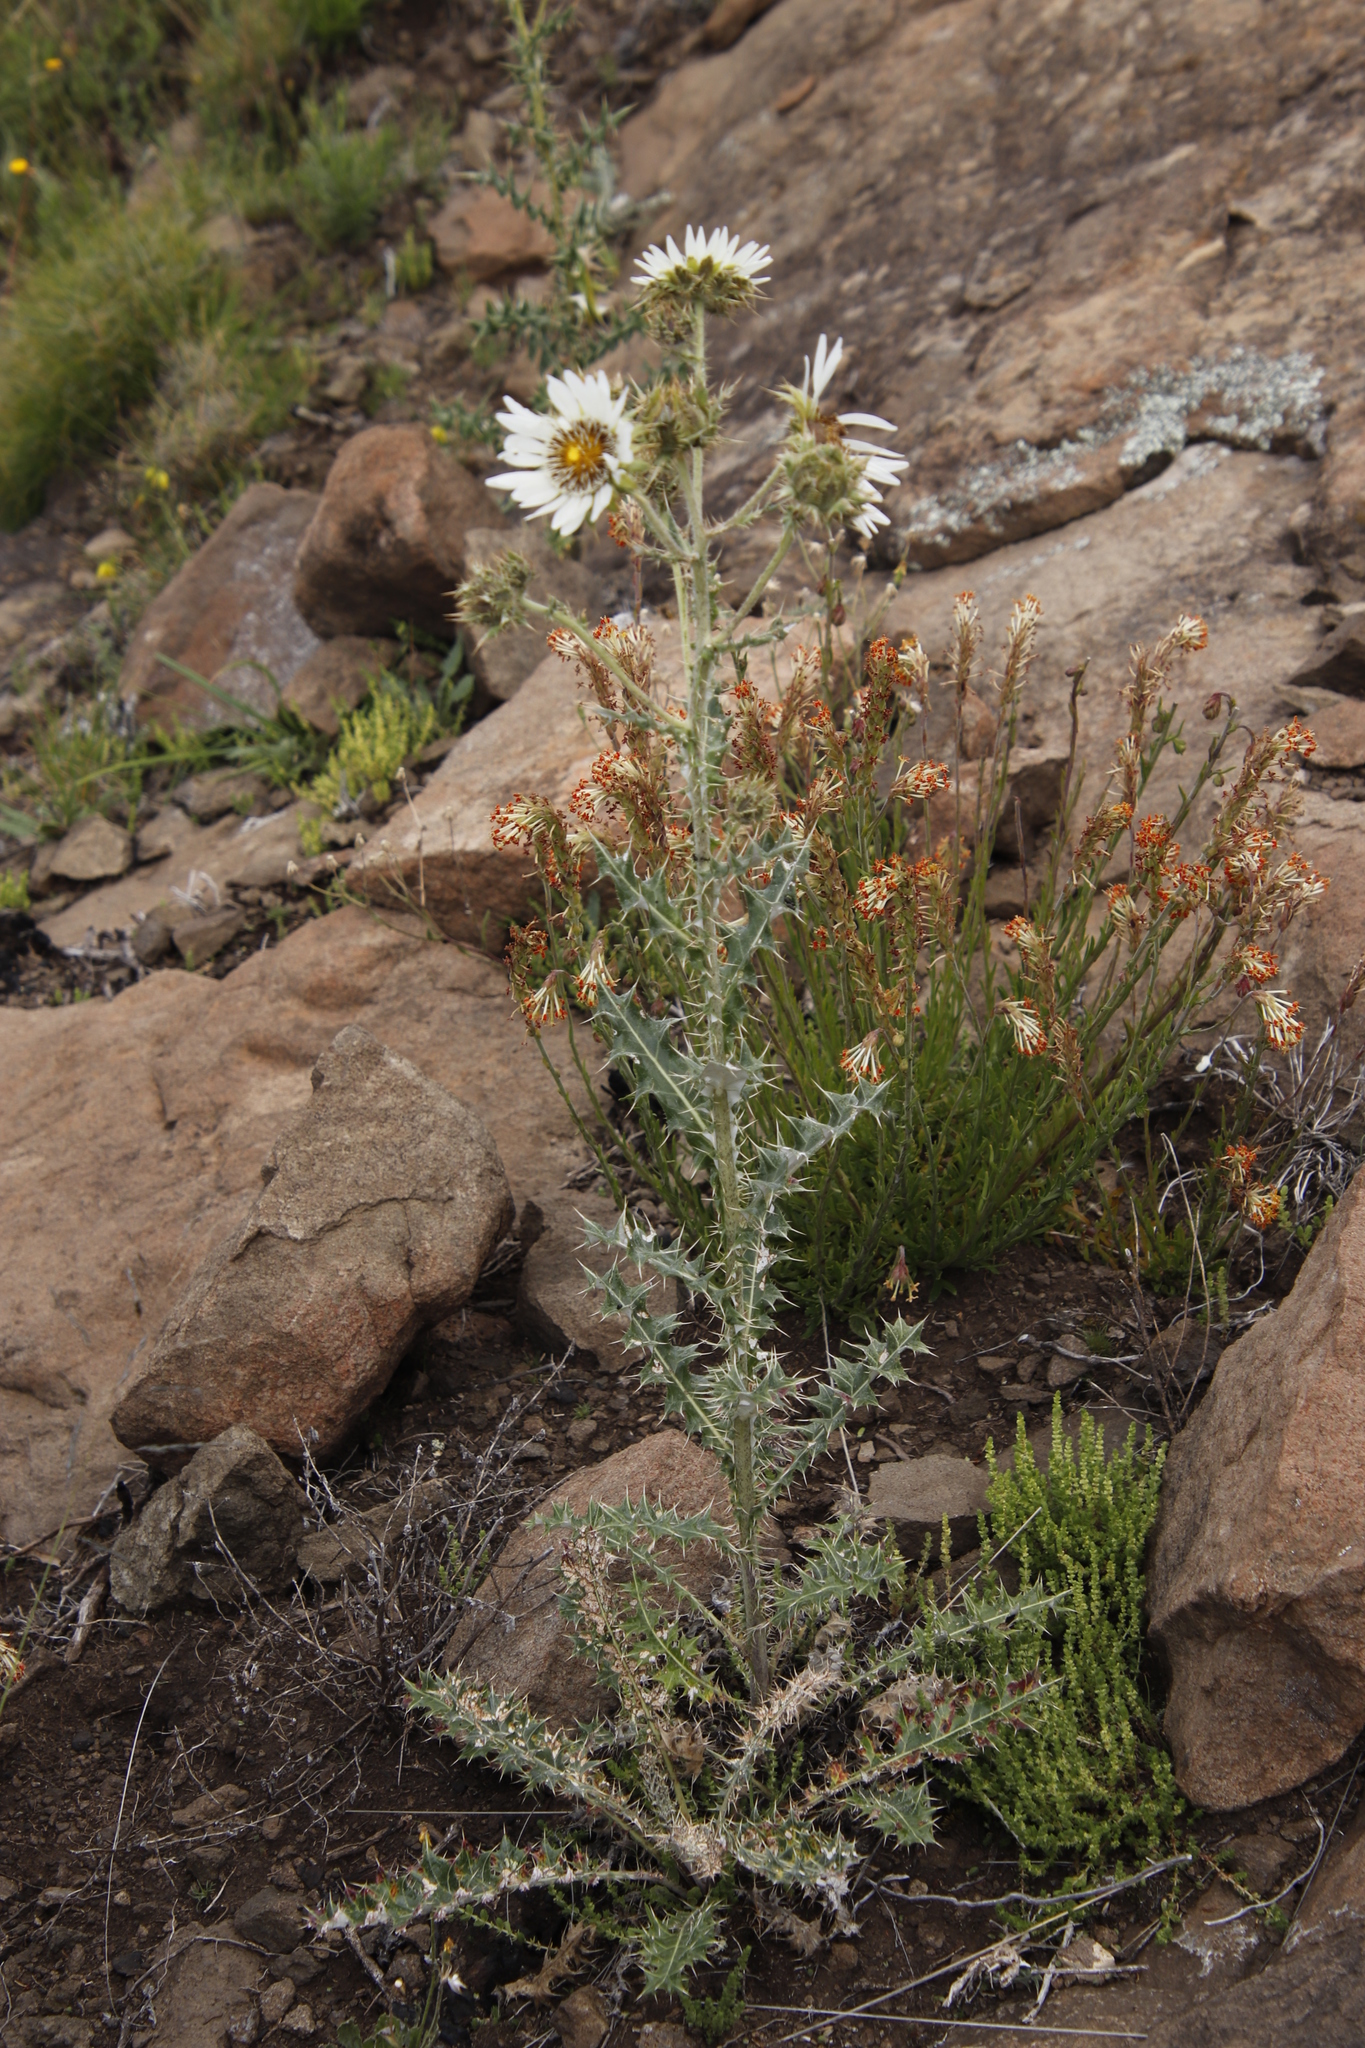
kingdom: Plantae
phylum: Tracheophyta
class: Magnoliopsida
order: Asterales
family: Asteraceae
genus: Berkheya
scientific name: Berkheya cirsiifolia
